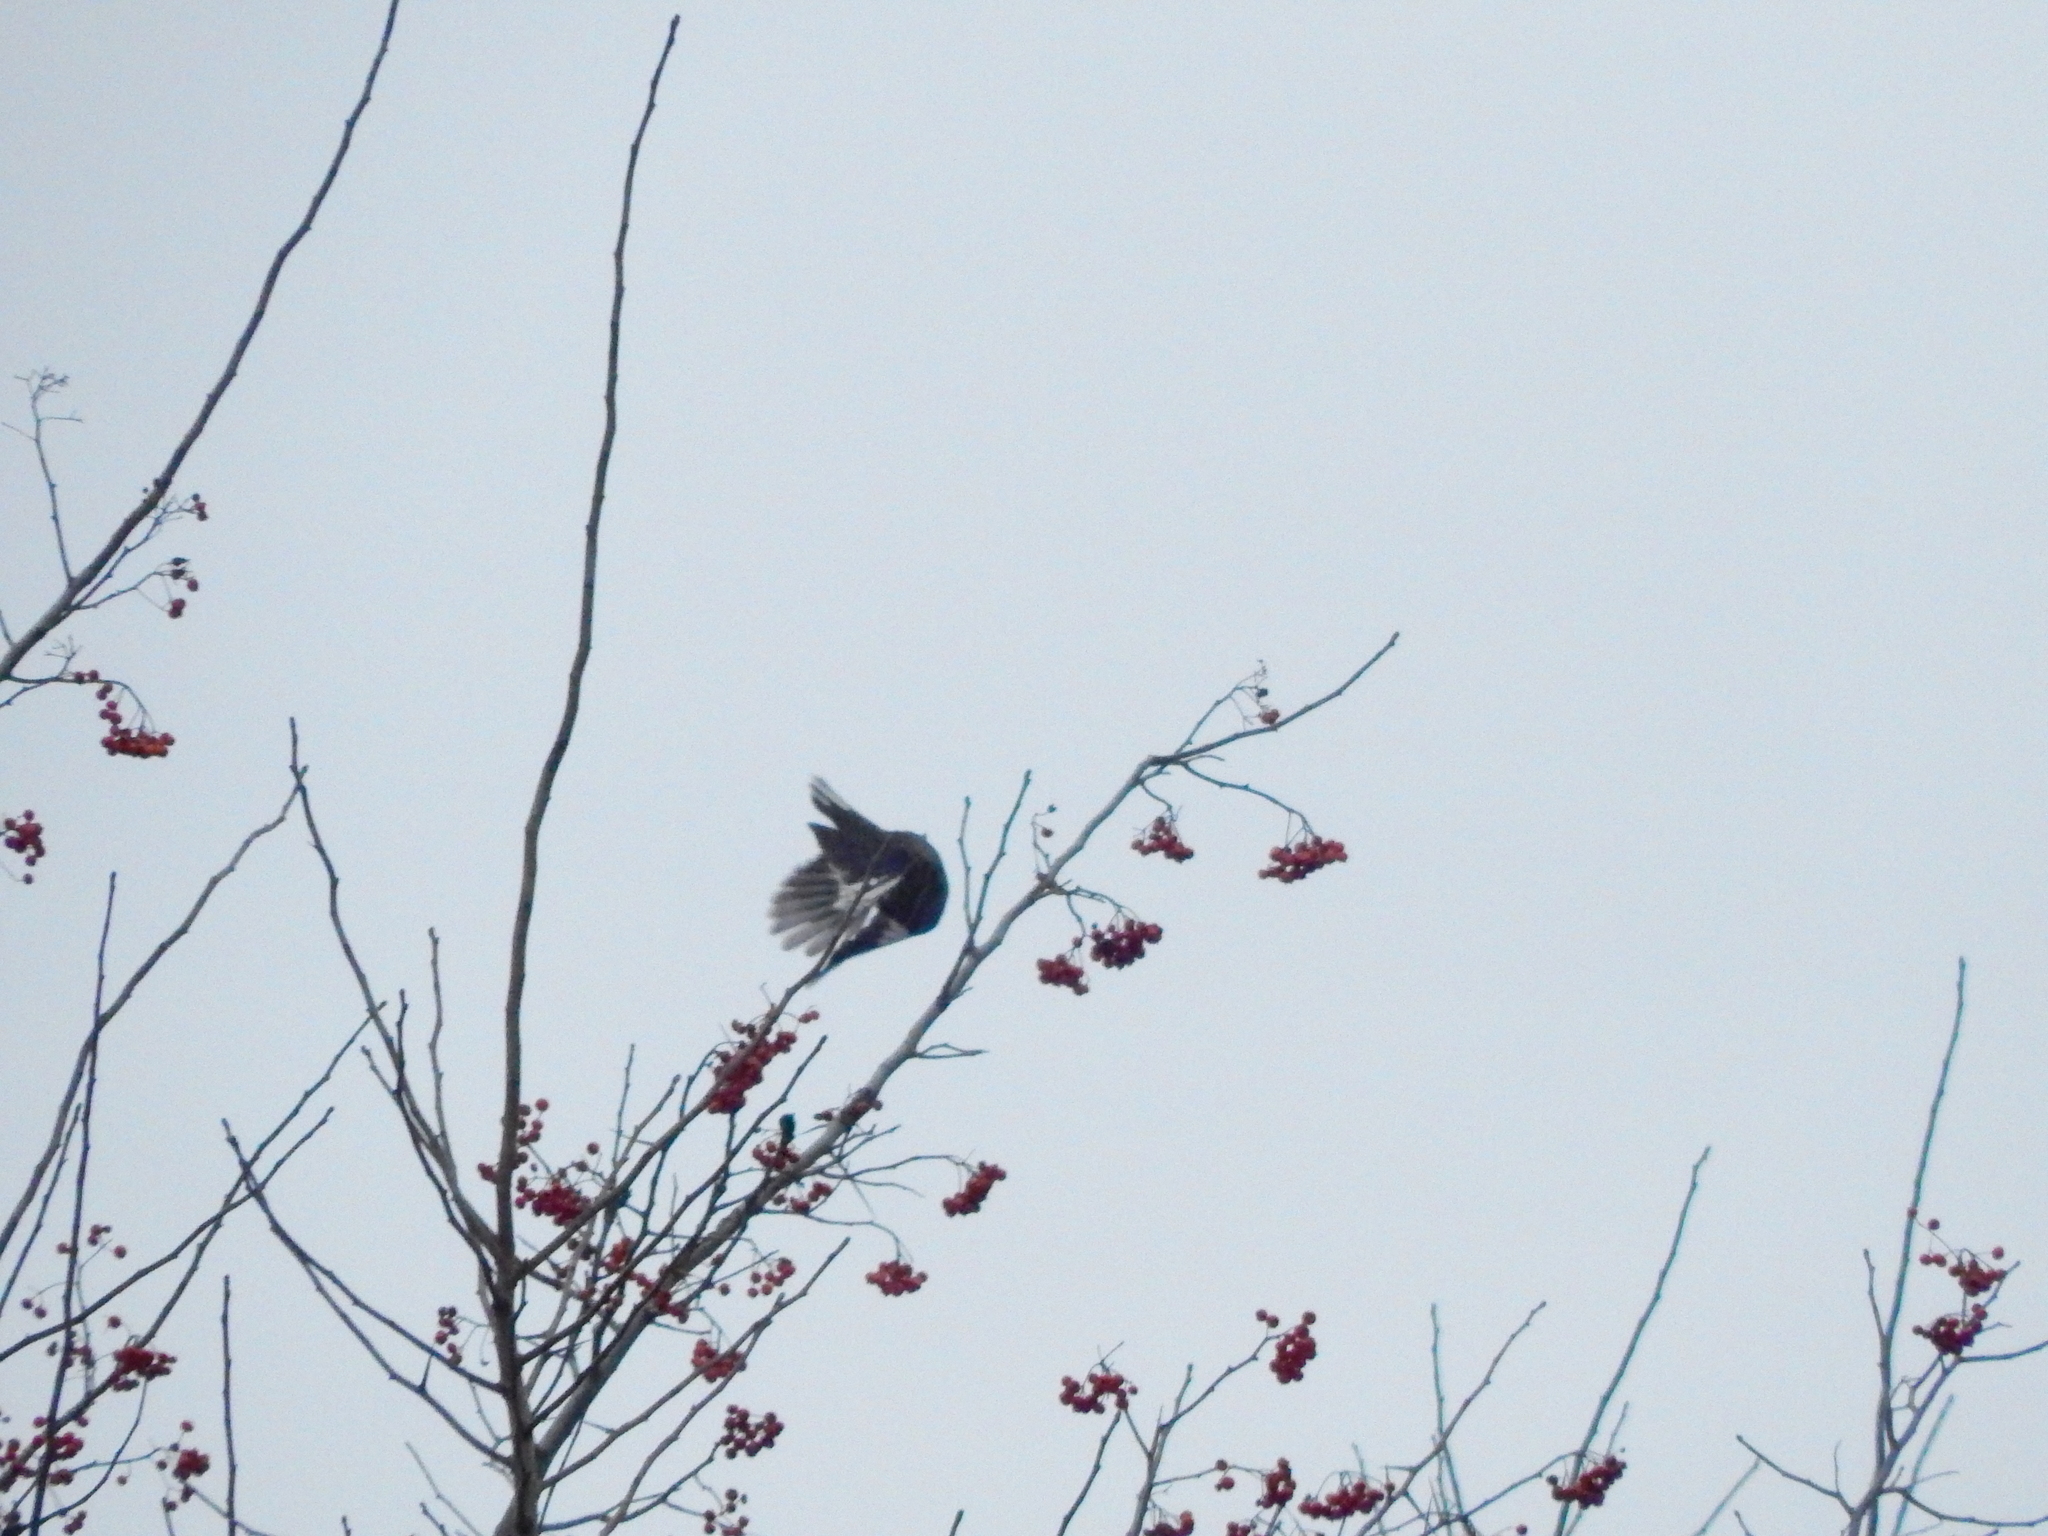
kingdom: Animalia
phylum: Chordata
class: Aves
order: Passeriformes
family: Mimidae
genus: Mimus
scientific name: Mimus polyglottos
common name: Northern mockingbird
